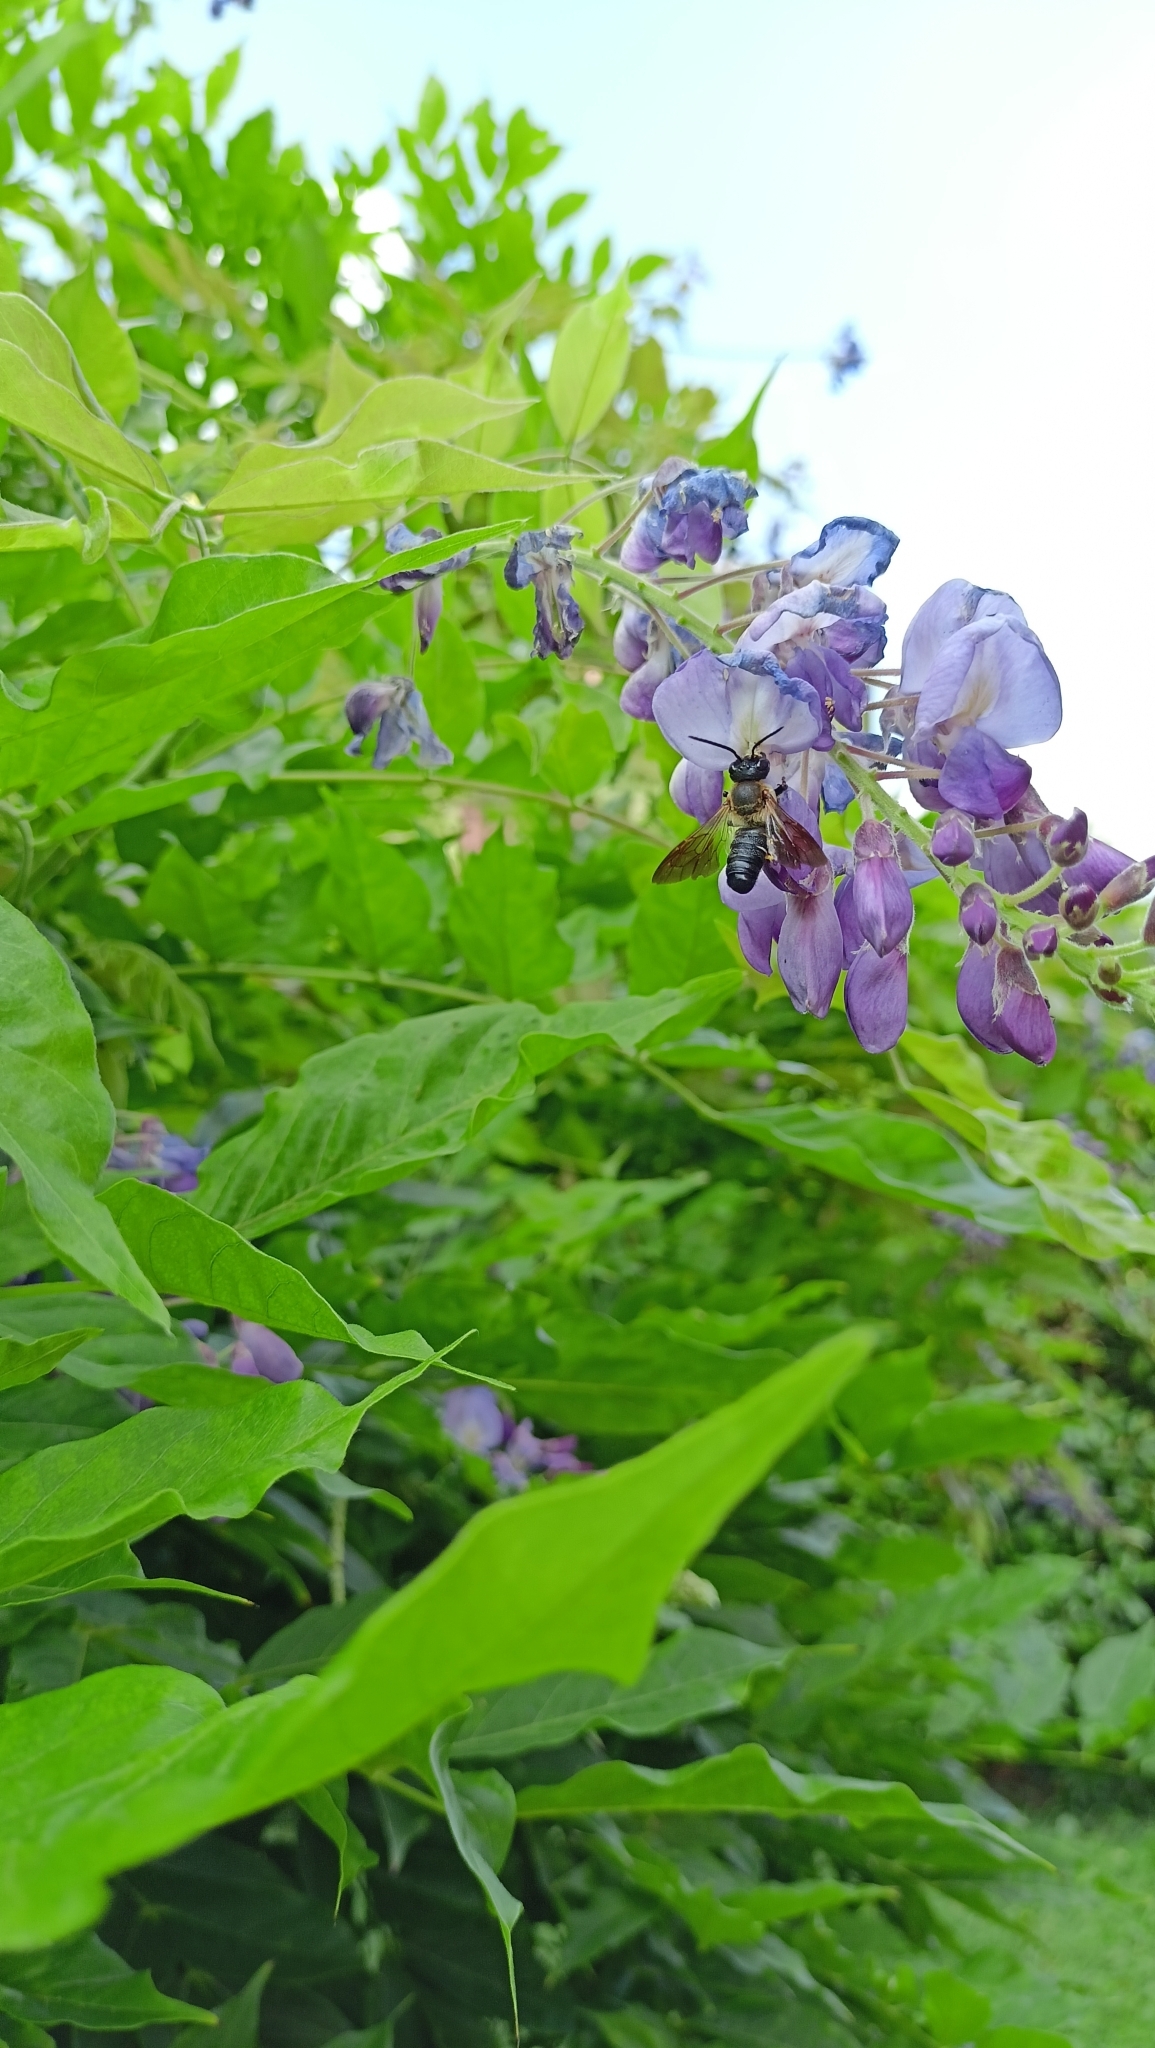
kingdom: Animalia
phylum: Arthropoda
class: Insecta
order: Hymenoptera
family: Megachilidae
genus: Megachile
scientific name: Megachile sculpturalis
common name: Sculptured resin bee
